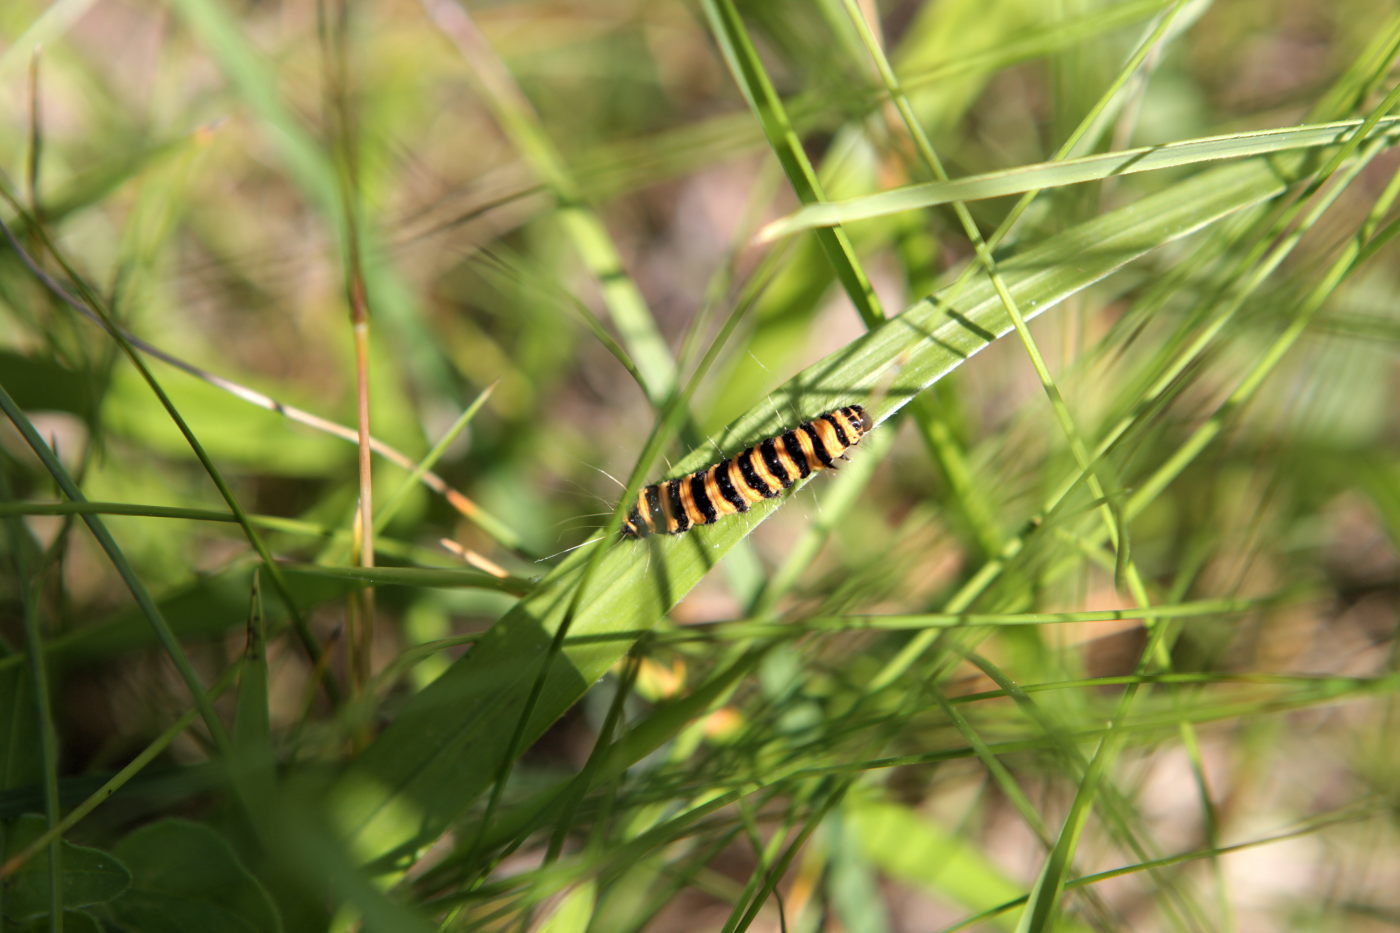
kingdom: Animalia
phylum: Arthropoda
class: Insecta
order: Lepidoptera
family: Erebidae
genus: Tyria
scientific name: Tyria jacobaeae
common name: Cinnabar
